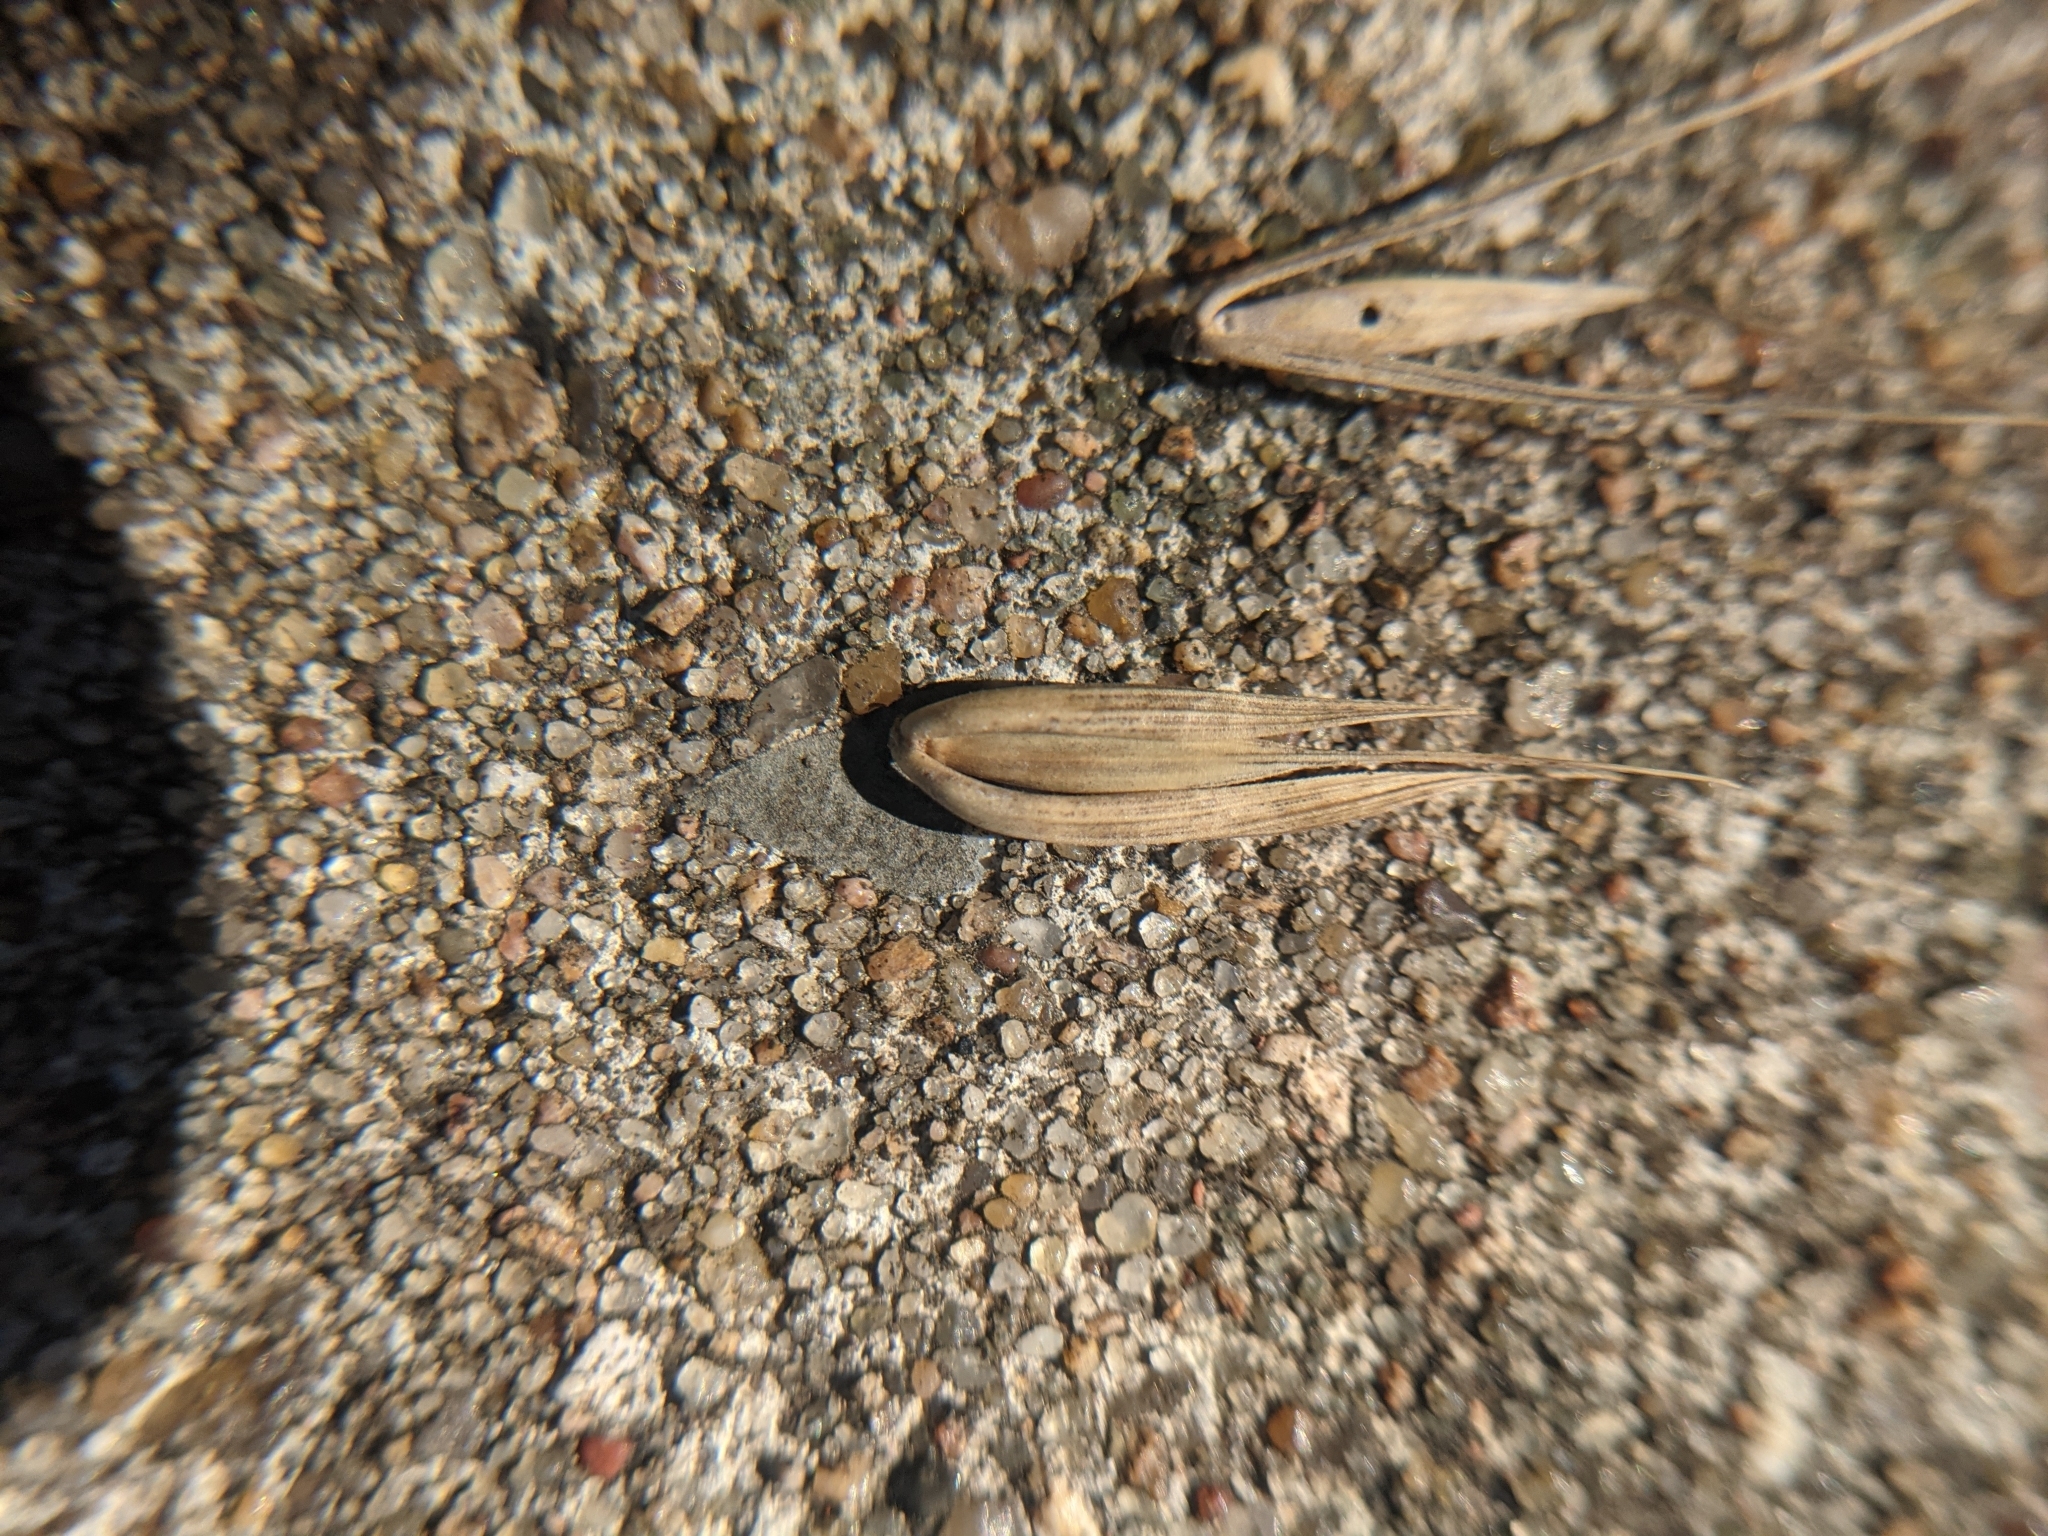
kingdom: Plantae
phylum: Tracheophyta
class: Liliopsida
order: Poales
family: Poaceae
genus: Elymus
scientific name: Elymus virginicus
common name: Common eastern wildrye
